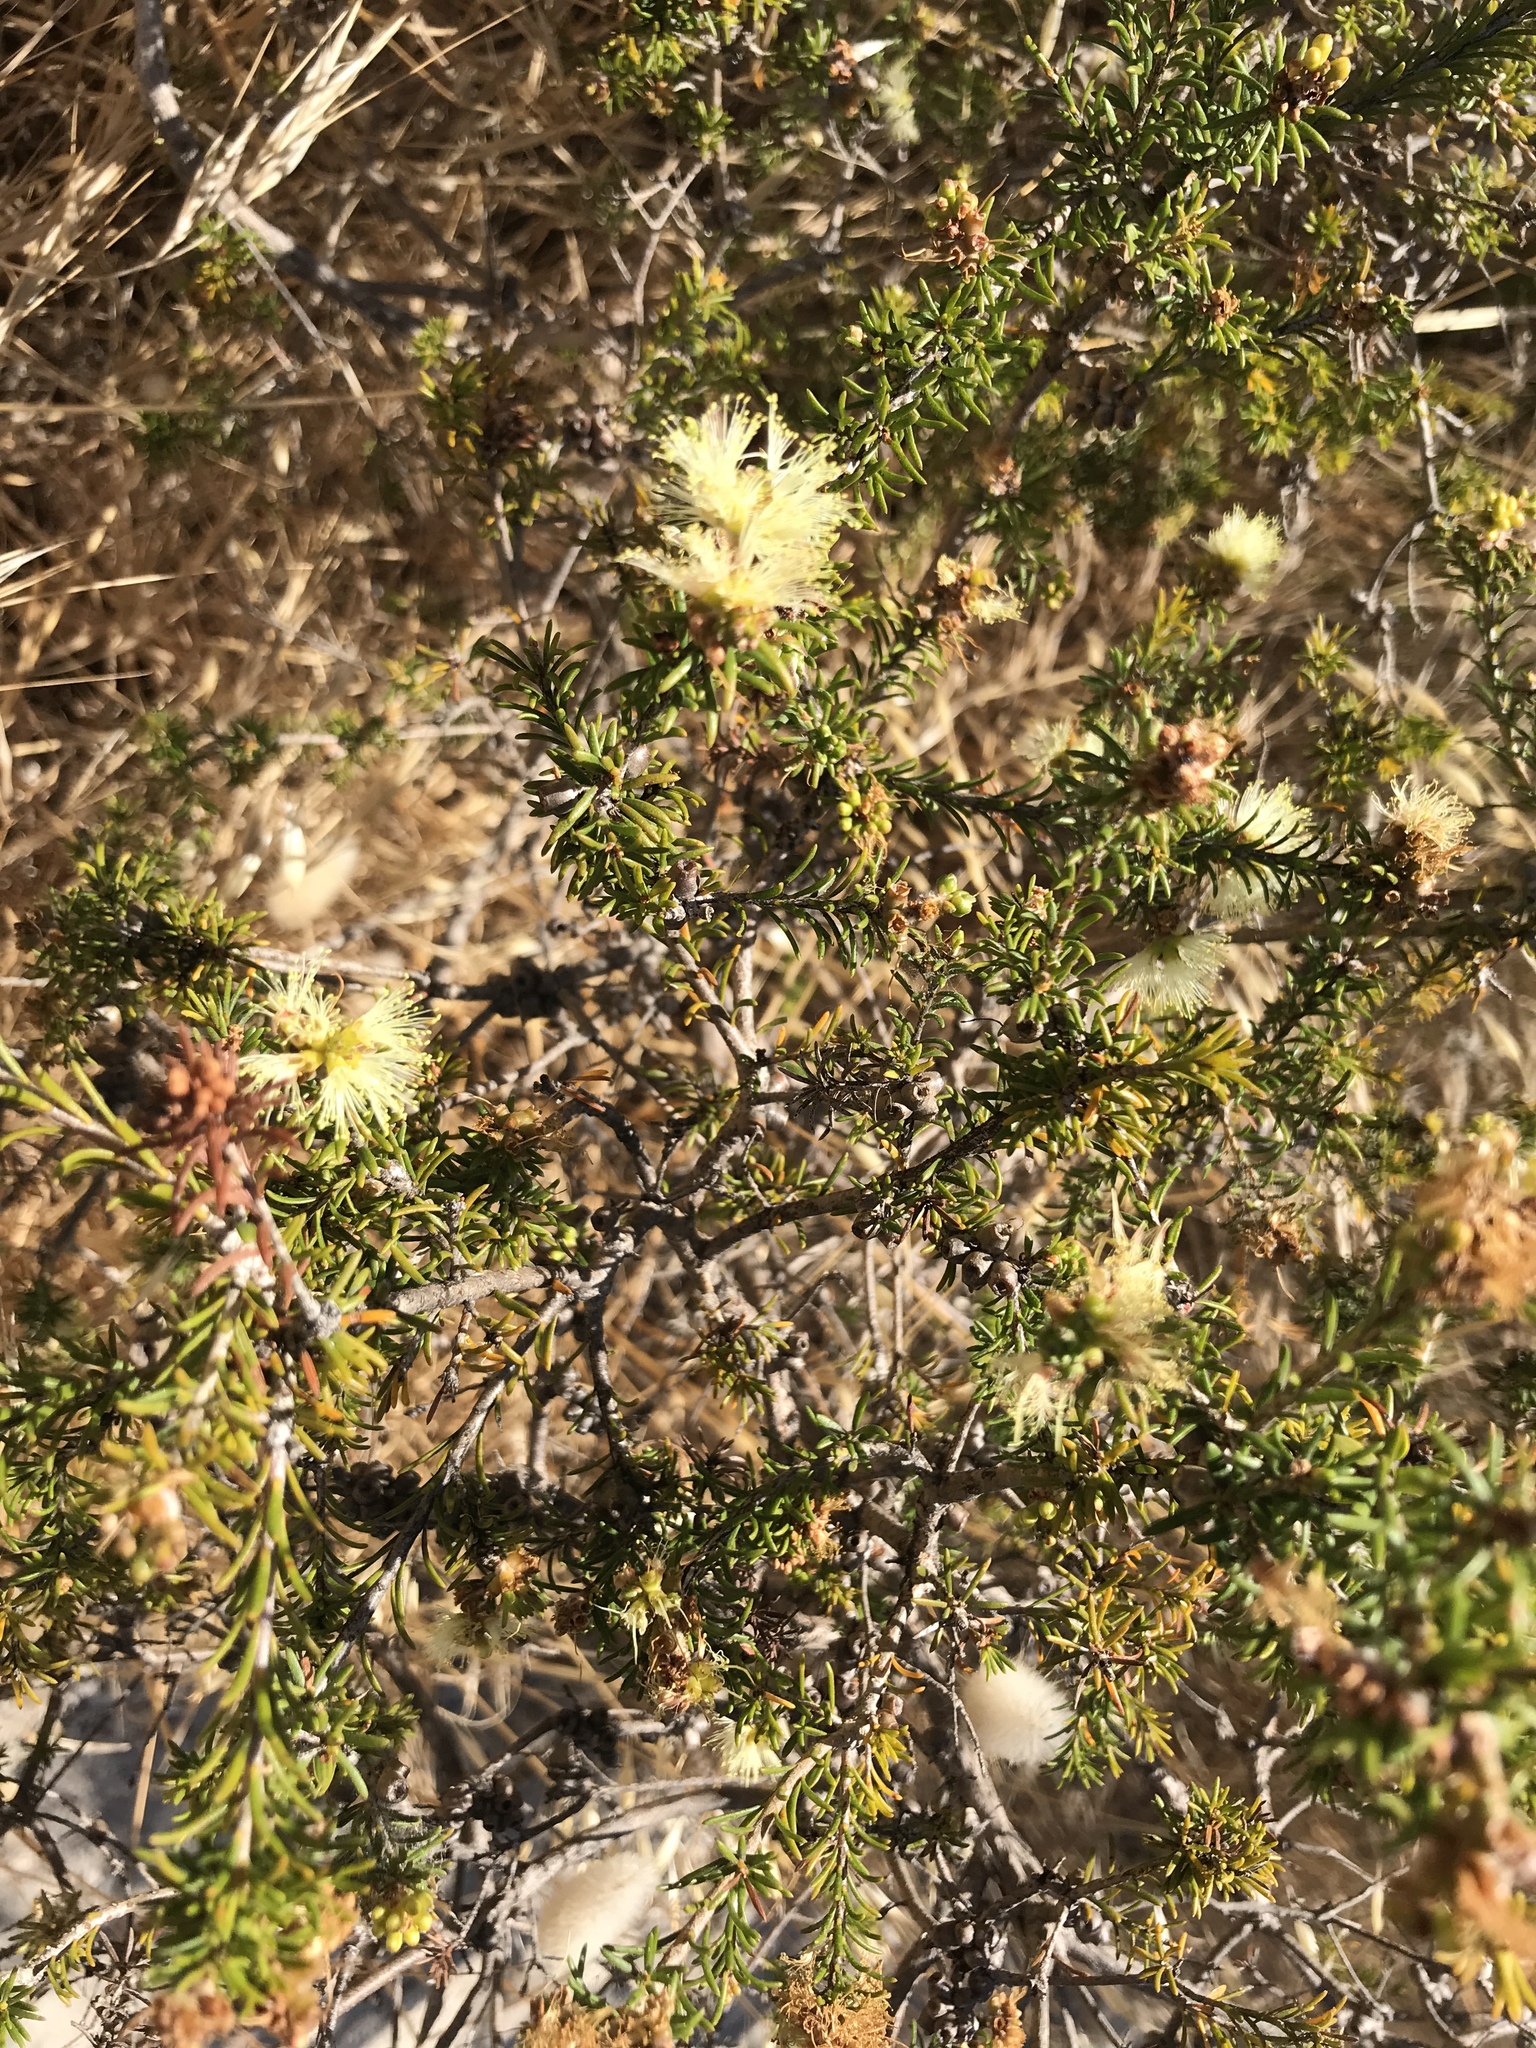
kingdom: Plantae
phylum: Tracheophyta
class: Magnoliopsida
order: Myrtales
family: Myrtaceae
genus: Melaleuca
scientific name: Melaleuca systena
